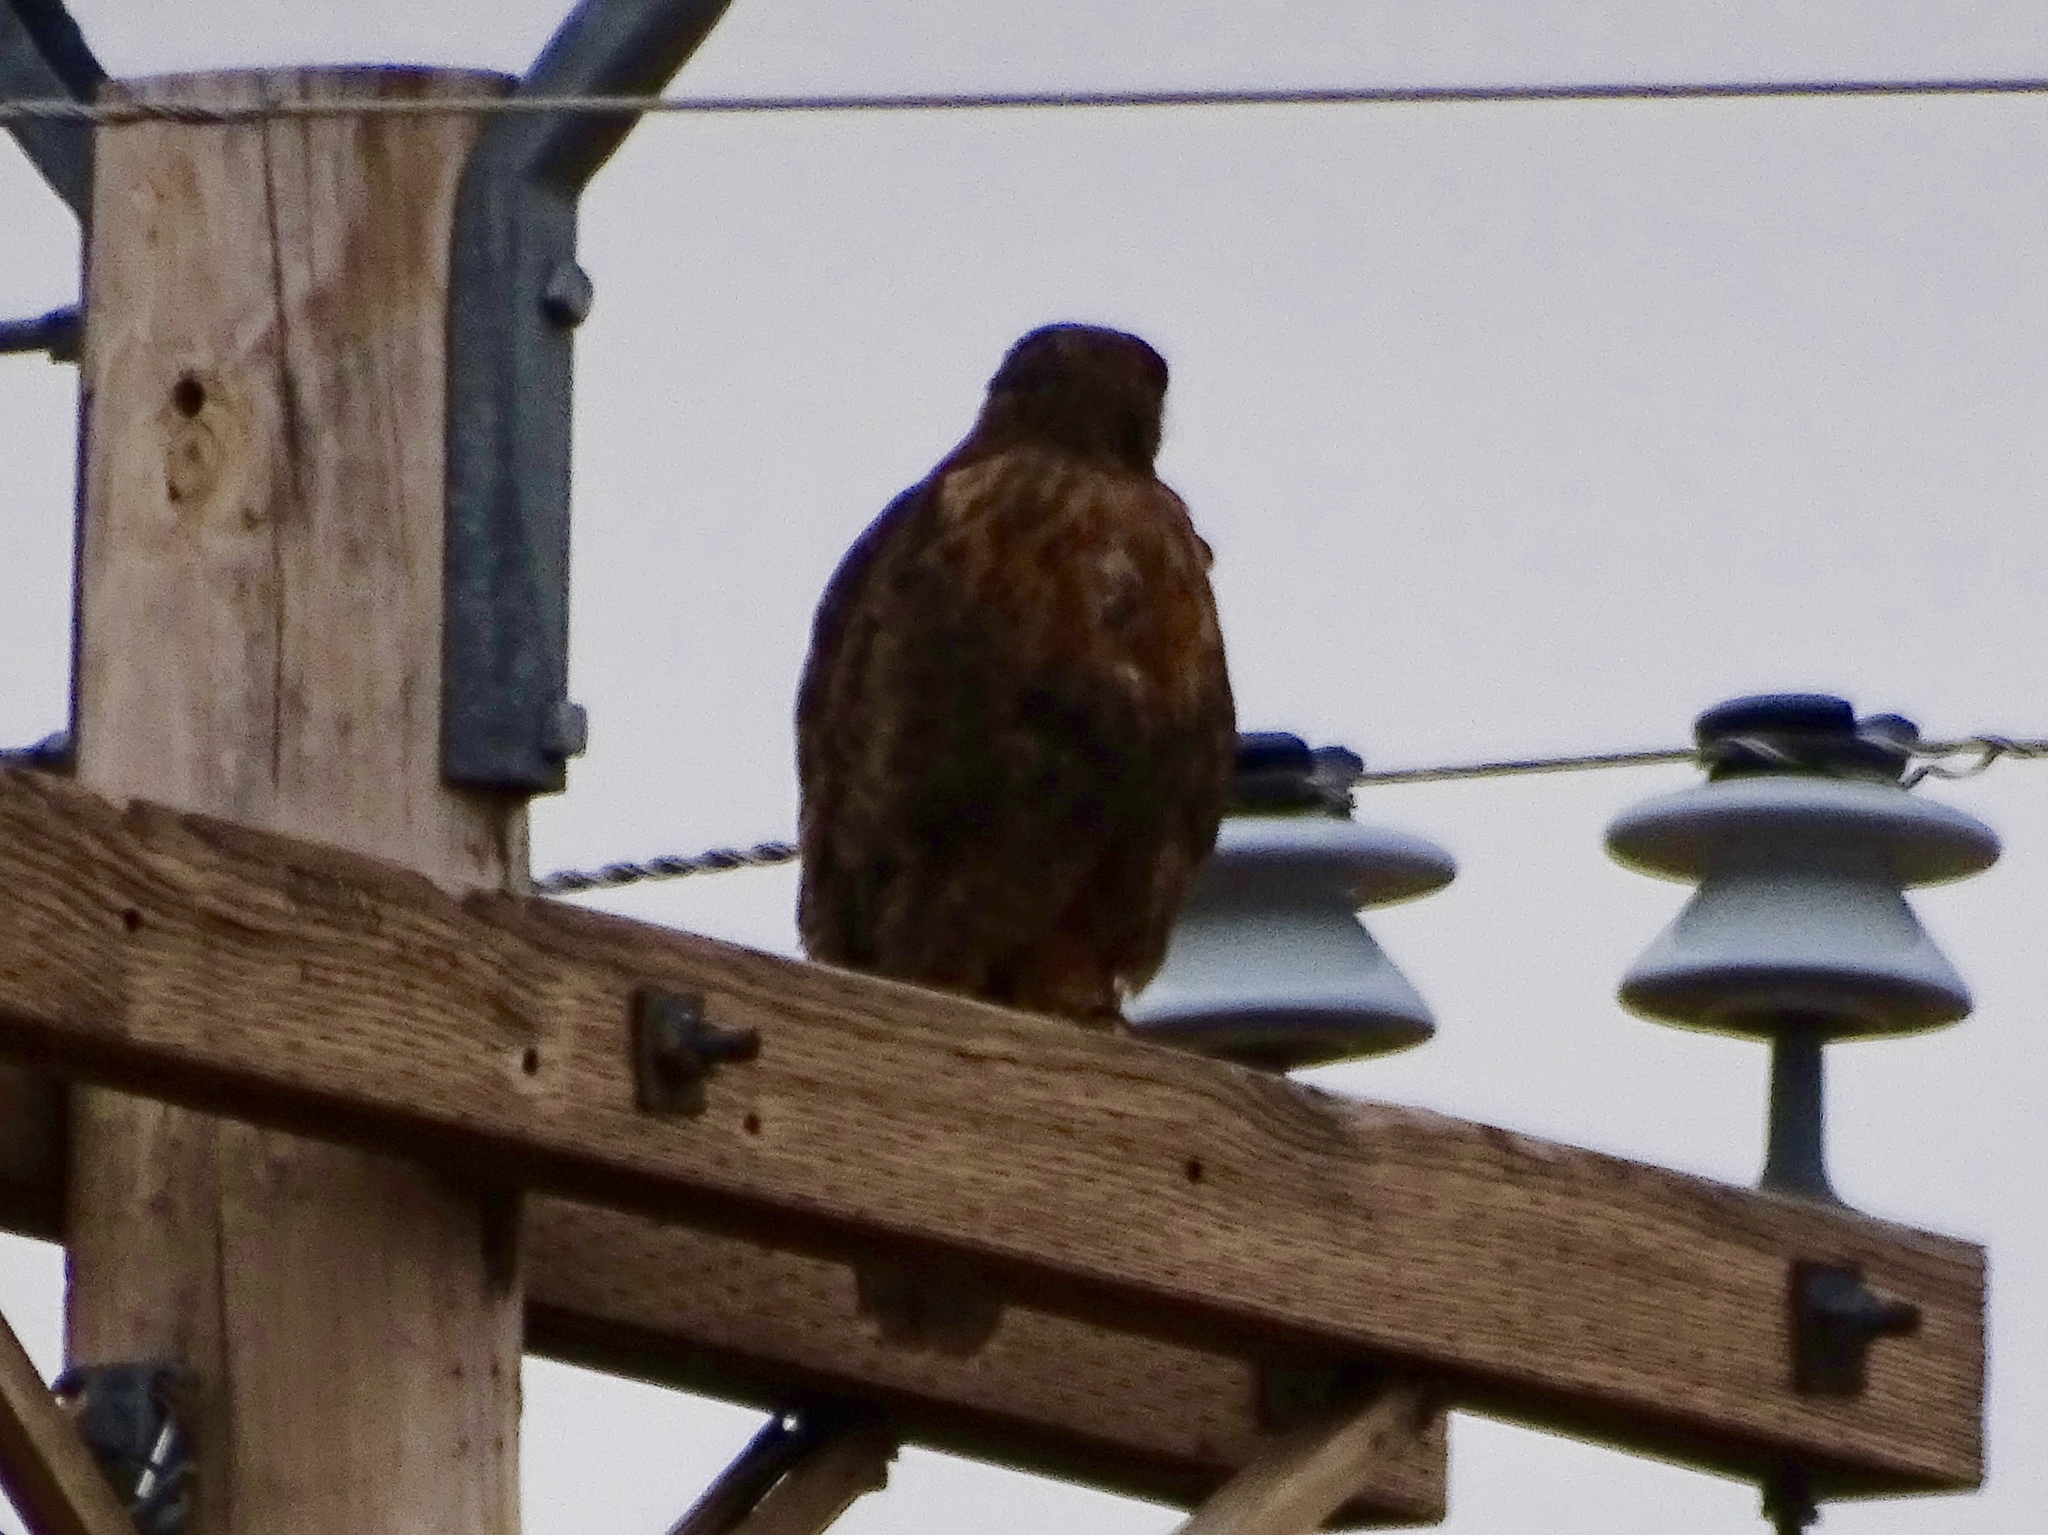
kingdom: Animalia
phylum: Chordata
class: Aves
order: Accipitriformes
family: Accipitridae
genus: Buteo
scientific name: Buteo jamaicensis
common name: Red-tailed hawk
